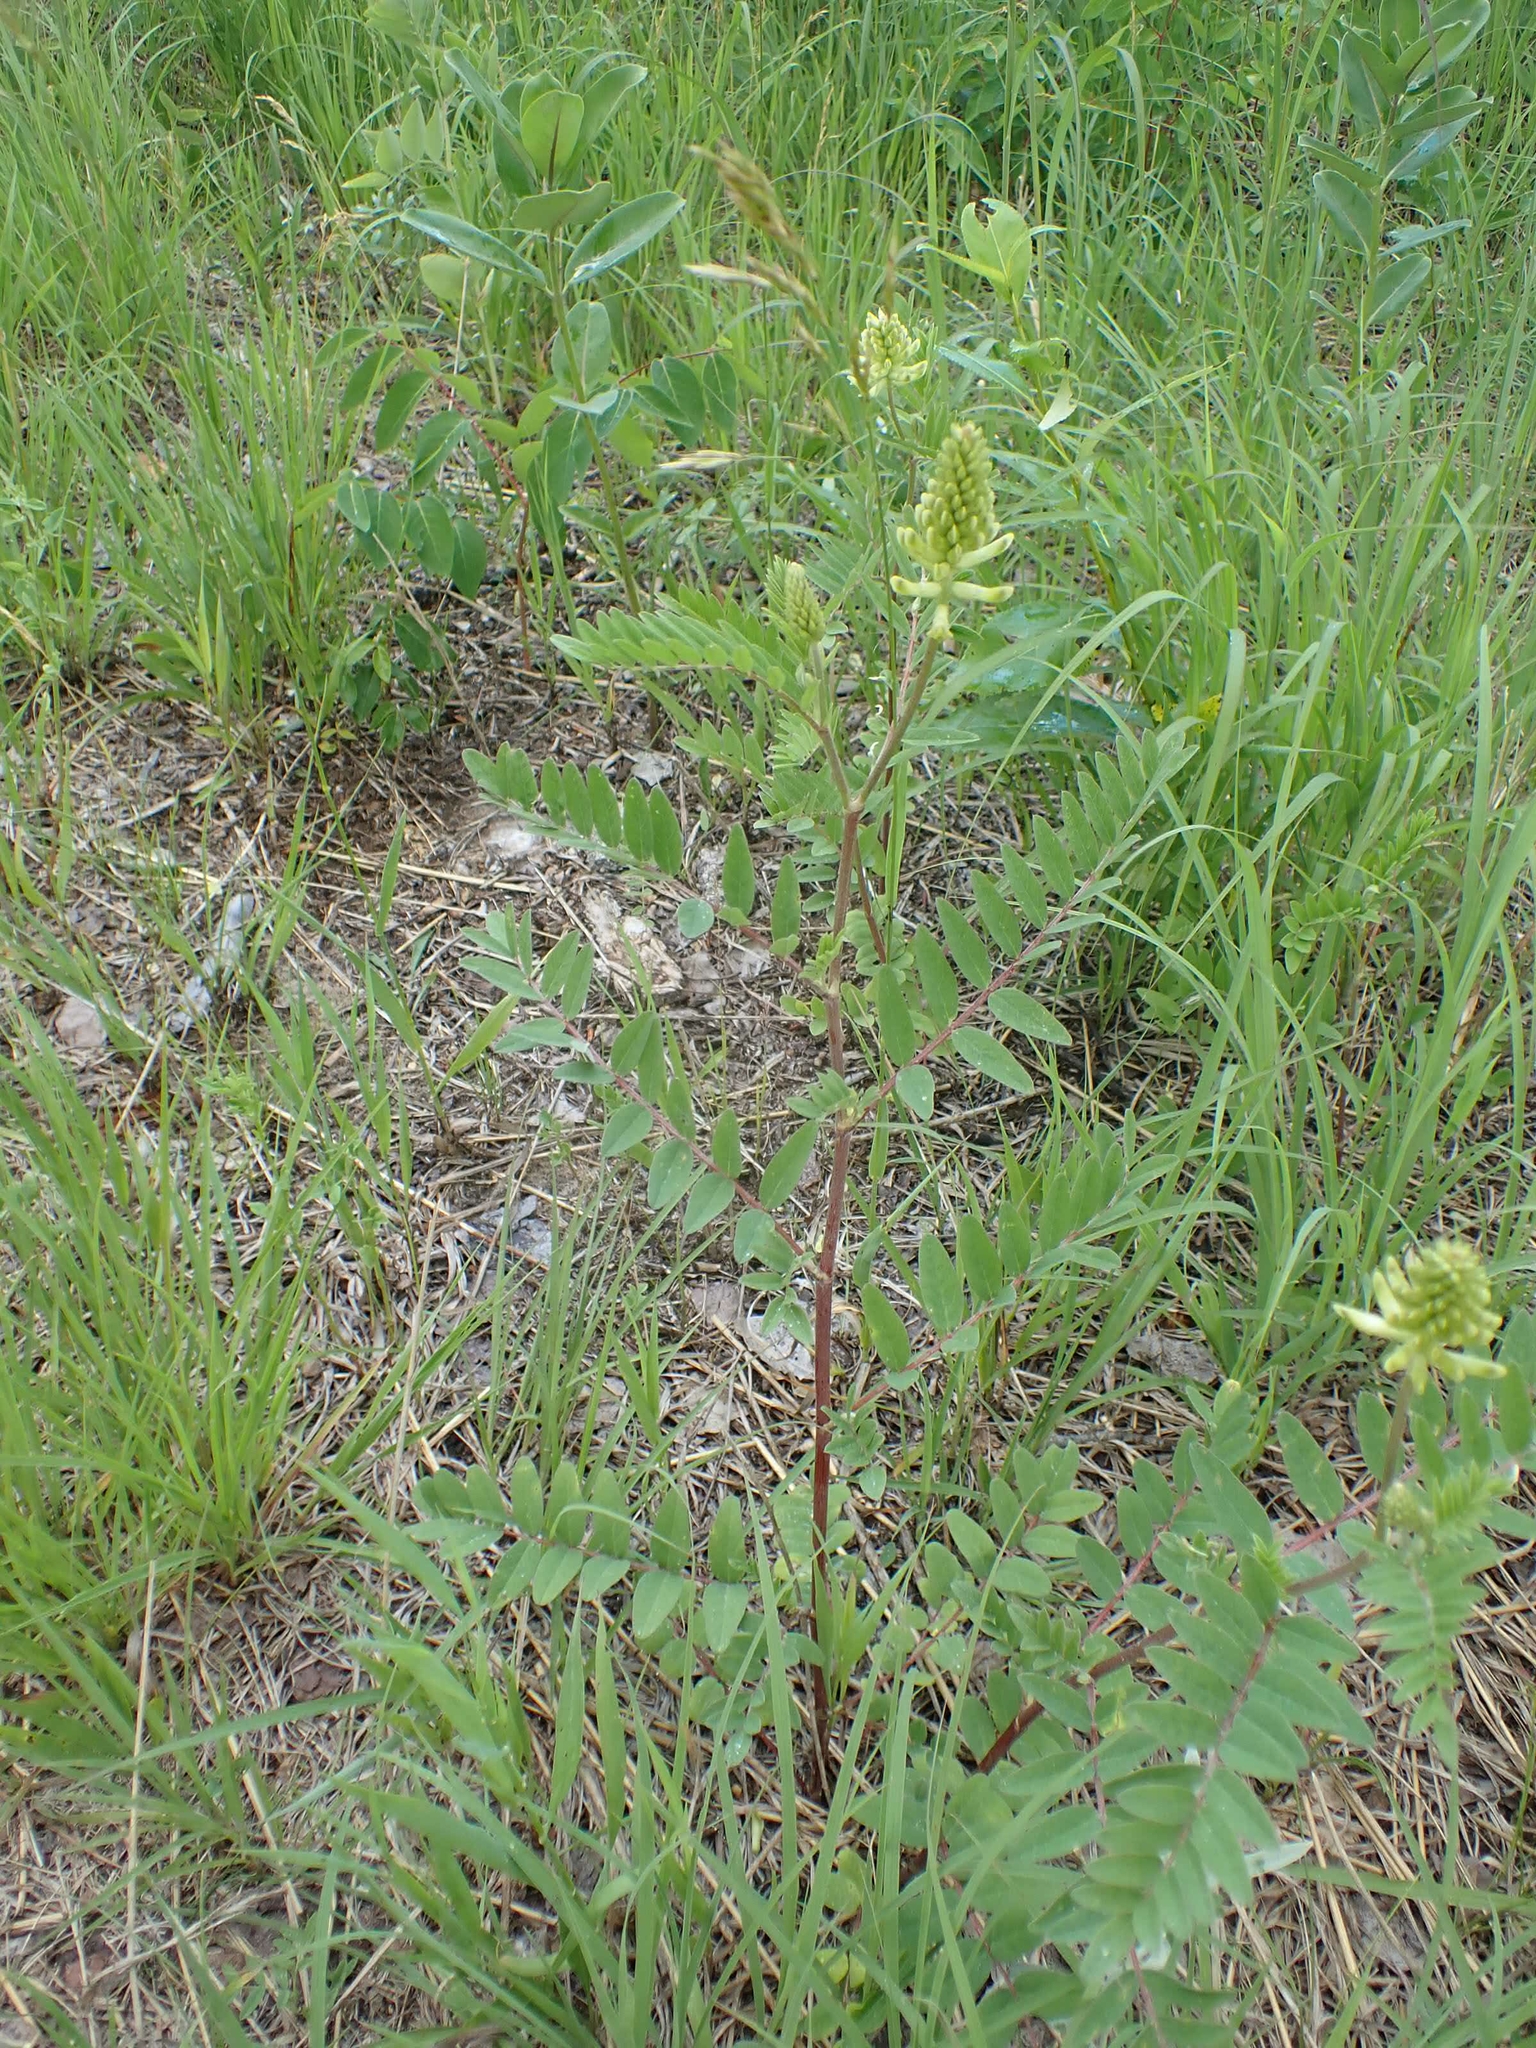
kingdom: Plantae
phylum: Tracheophyta
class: Magnoliopsida
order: Fabales
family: Fabaceae
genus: Astragalus
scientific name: Astragalus canadensis
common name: Canada milk-vetch
